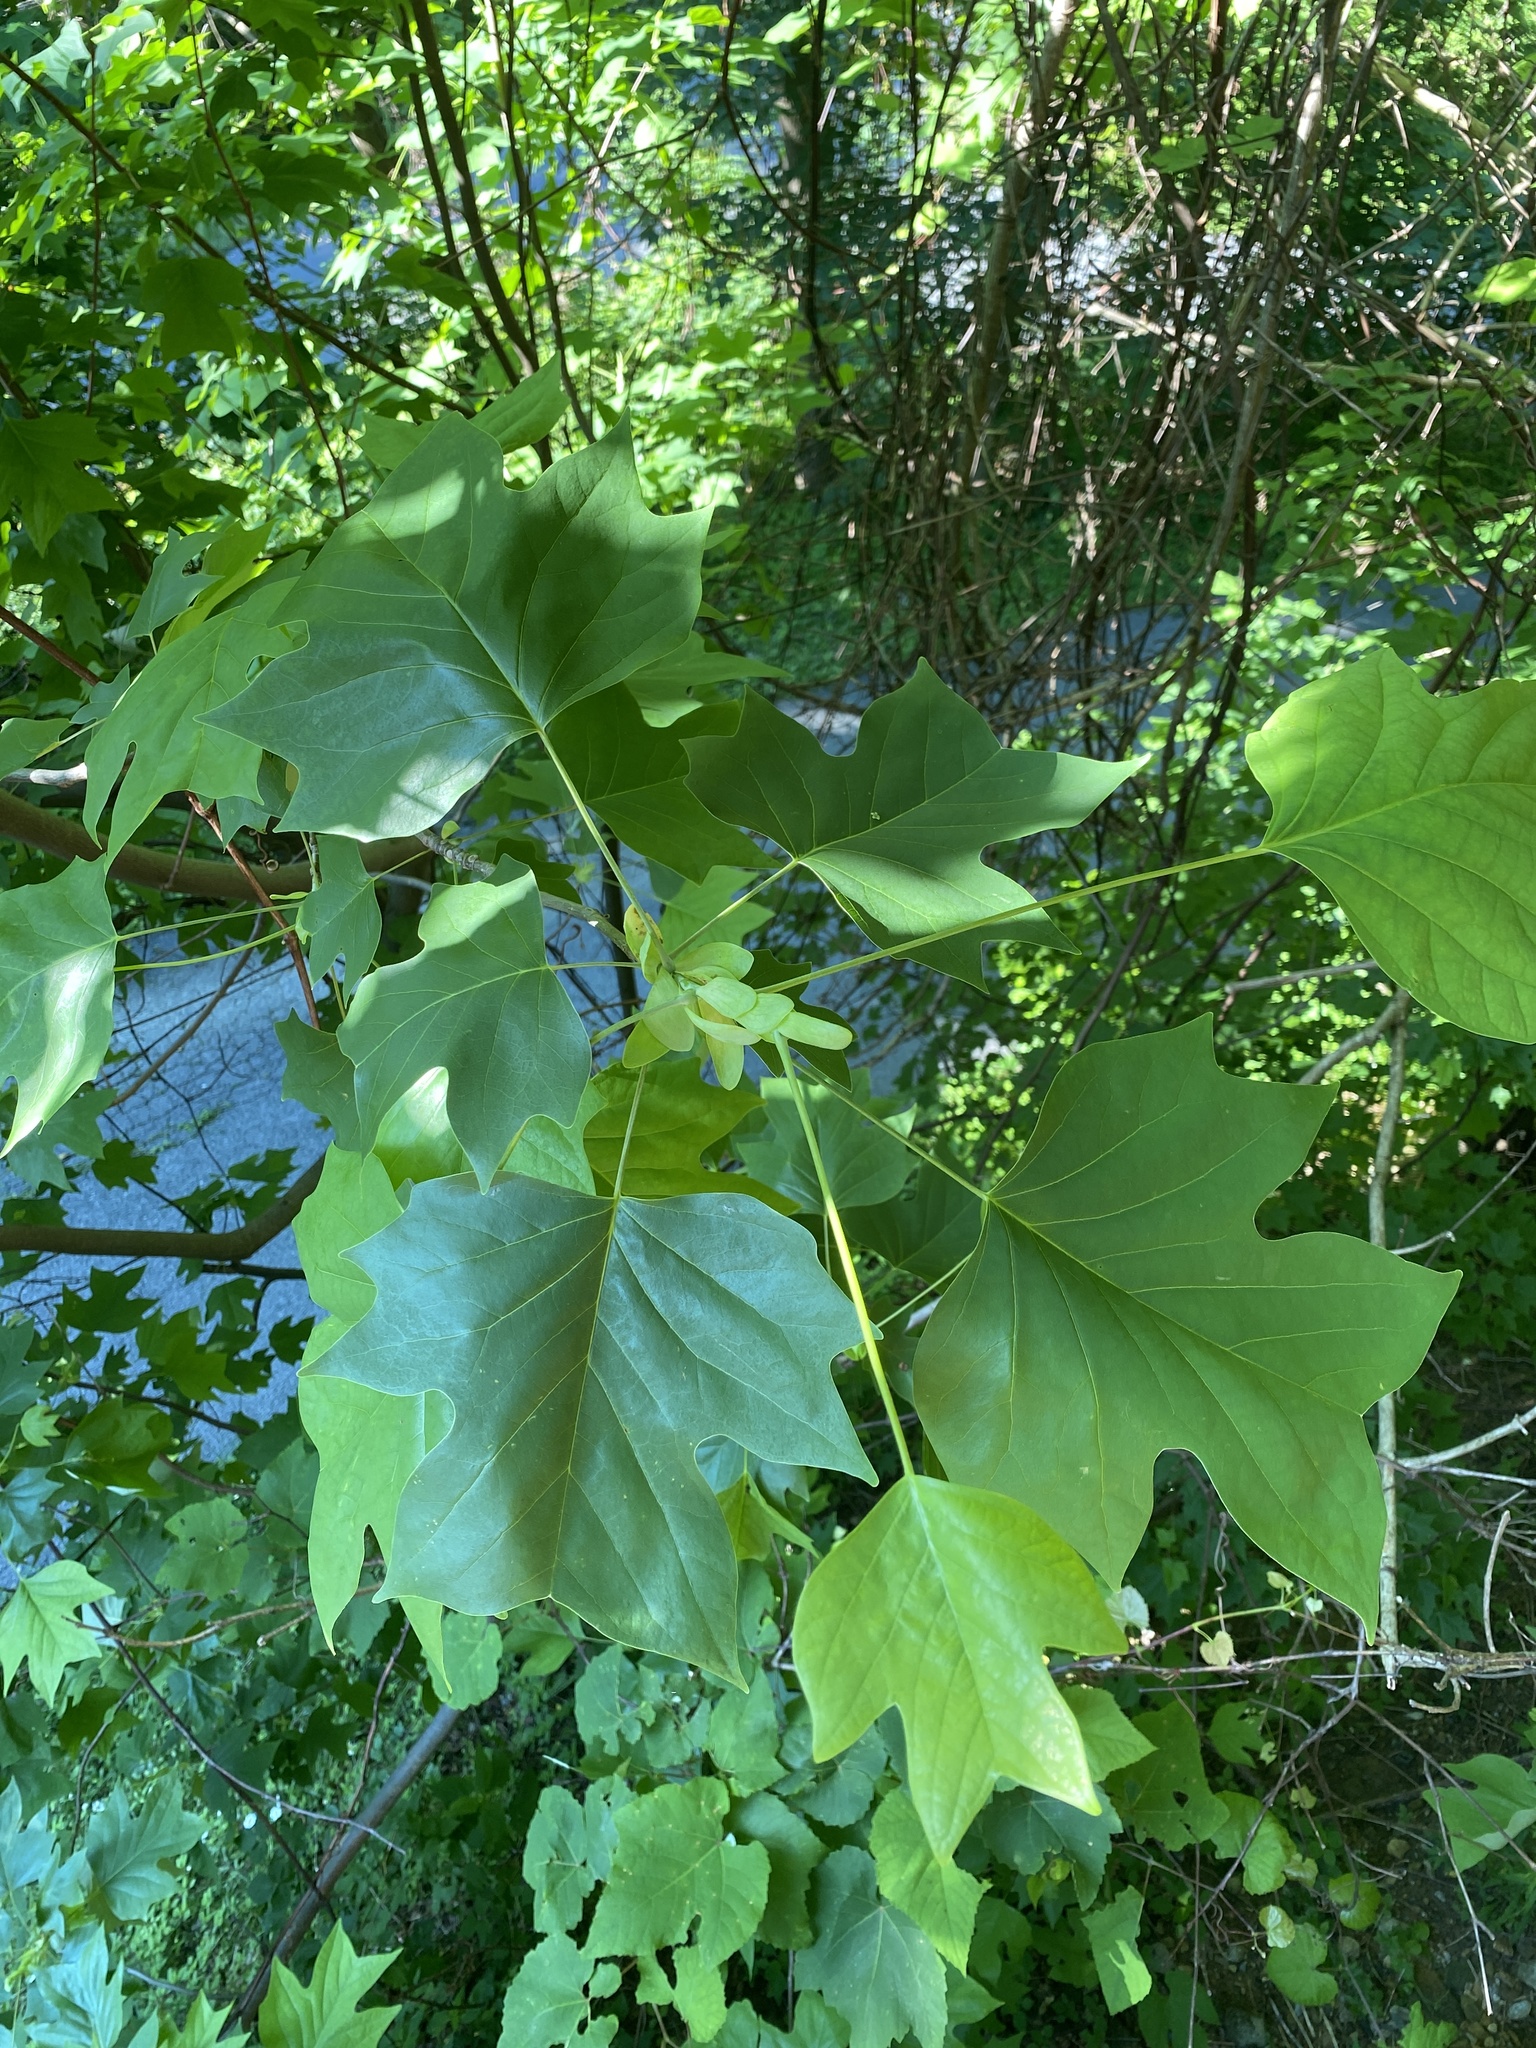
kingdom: Plantae
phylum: Tracheophyta
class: Magnoliopsida
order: Lamiales
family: Paulowniaceae
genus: Paulownia
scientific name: Paulownia tomentosa
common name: Foxglove-tree
